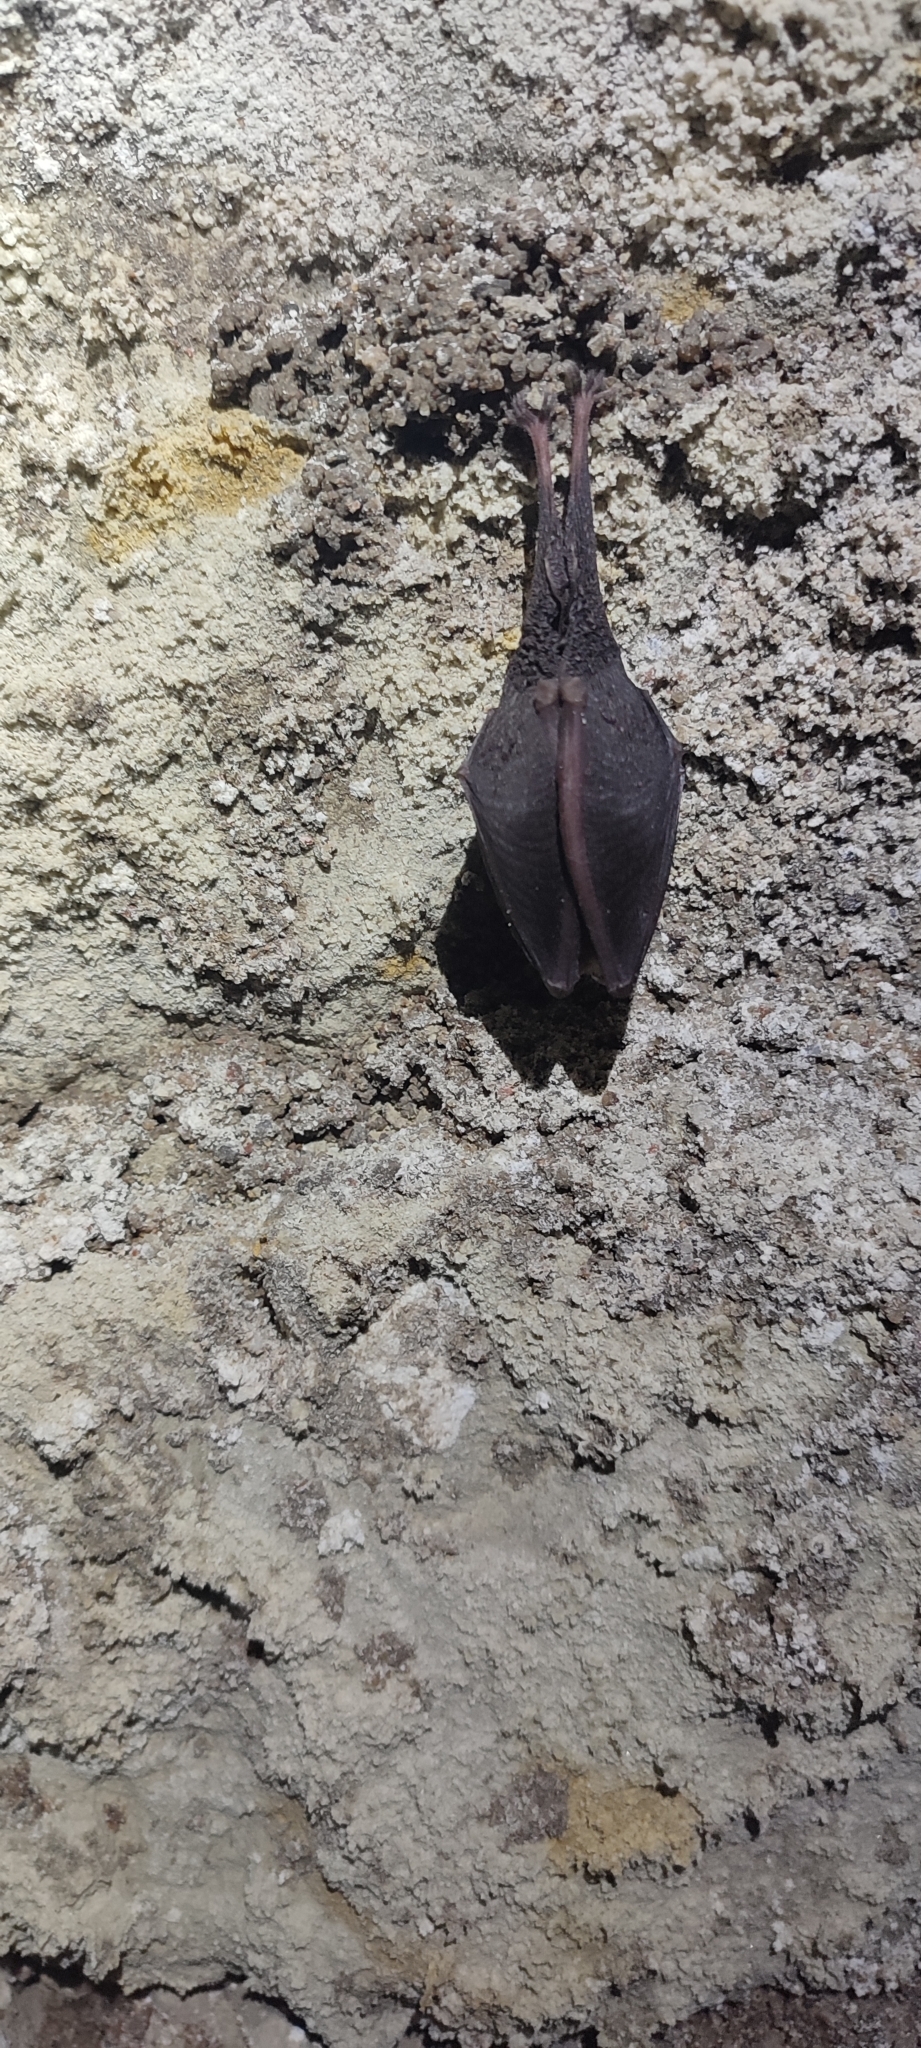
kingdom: Animalia
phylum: Chordata
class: Mammalia
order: Chiroptera
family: Rhinolophidae
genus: Rhinolophus
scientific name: Rhinolophus hipposideros
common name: Lesser horseshoe bat
